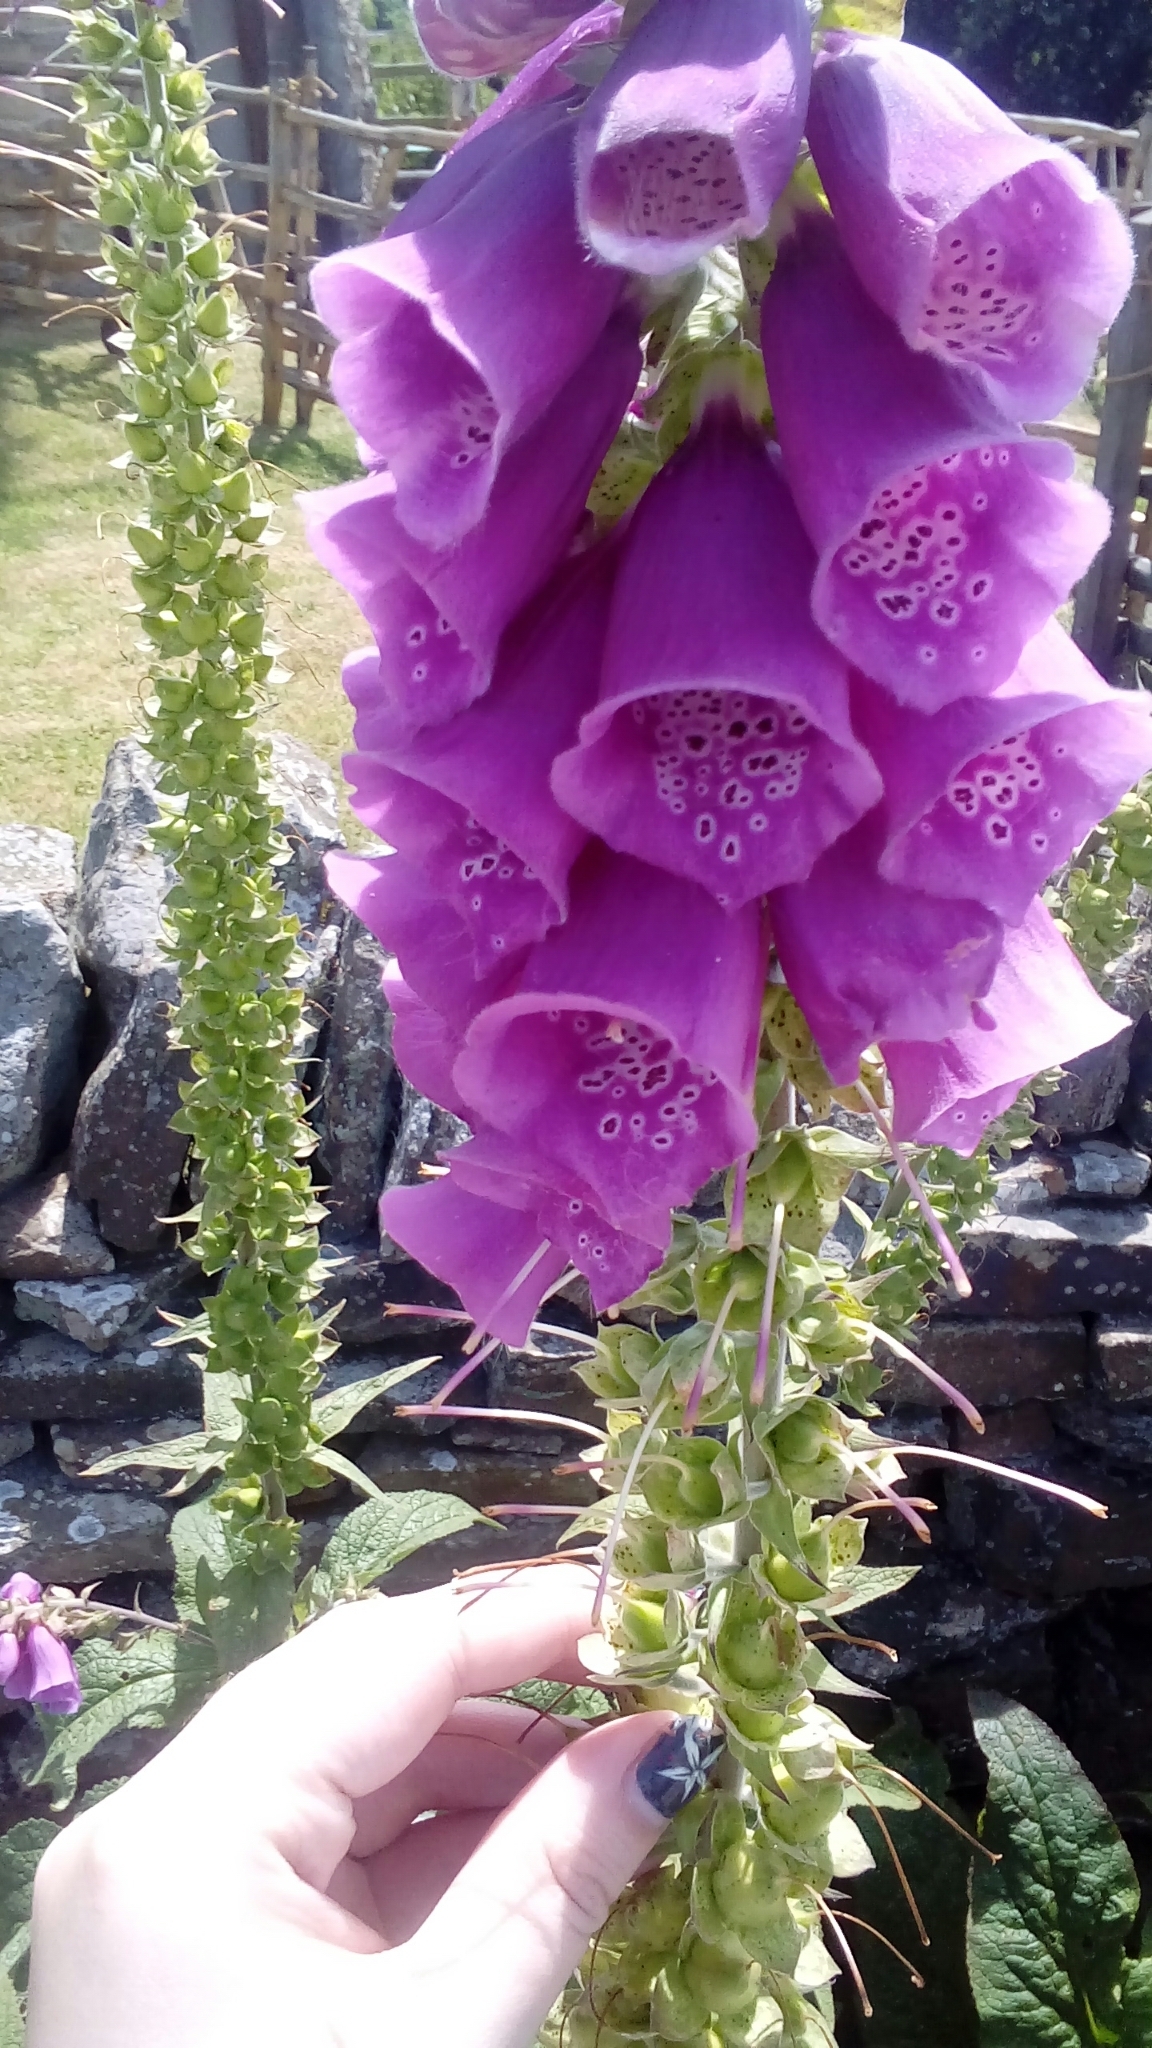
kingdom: Plantae
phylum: Tracheophyta
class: Magnoliopsida
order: Lamiales
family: Plantaginaceae
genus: Digitalis
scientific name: Digitalis purpurea
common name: Foxglove
